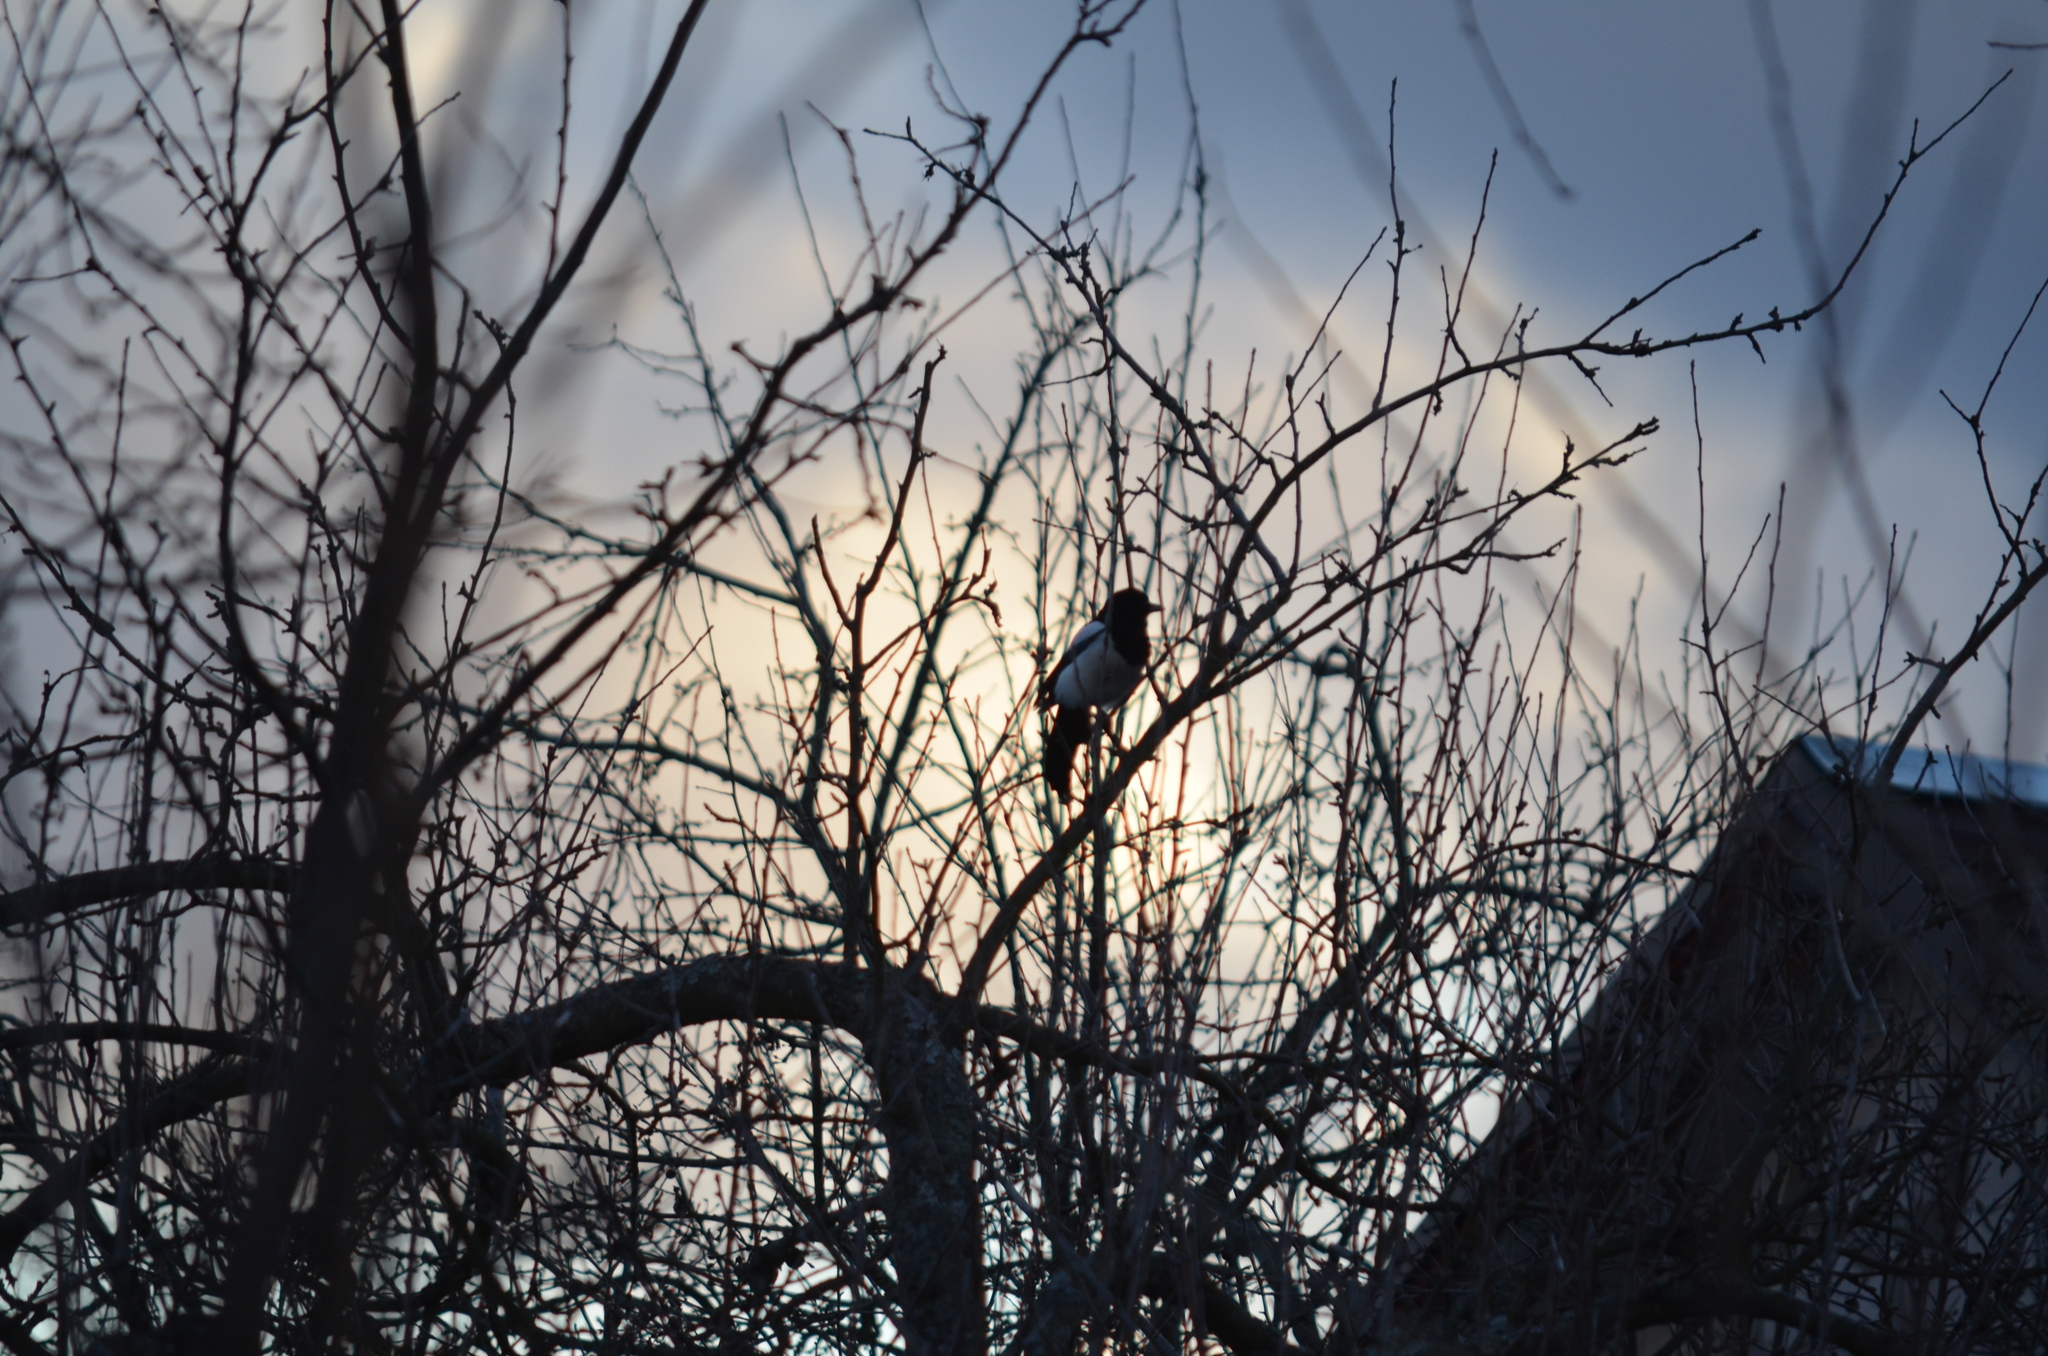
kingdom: Animalia
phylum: Chordata
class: Aves
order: Passeriformes
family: Corvidae
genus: Pica
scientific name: Pica pica
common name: Eurasian magpie
